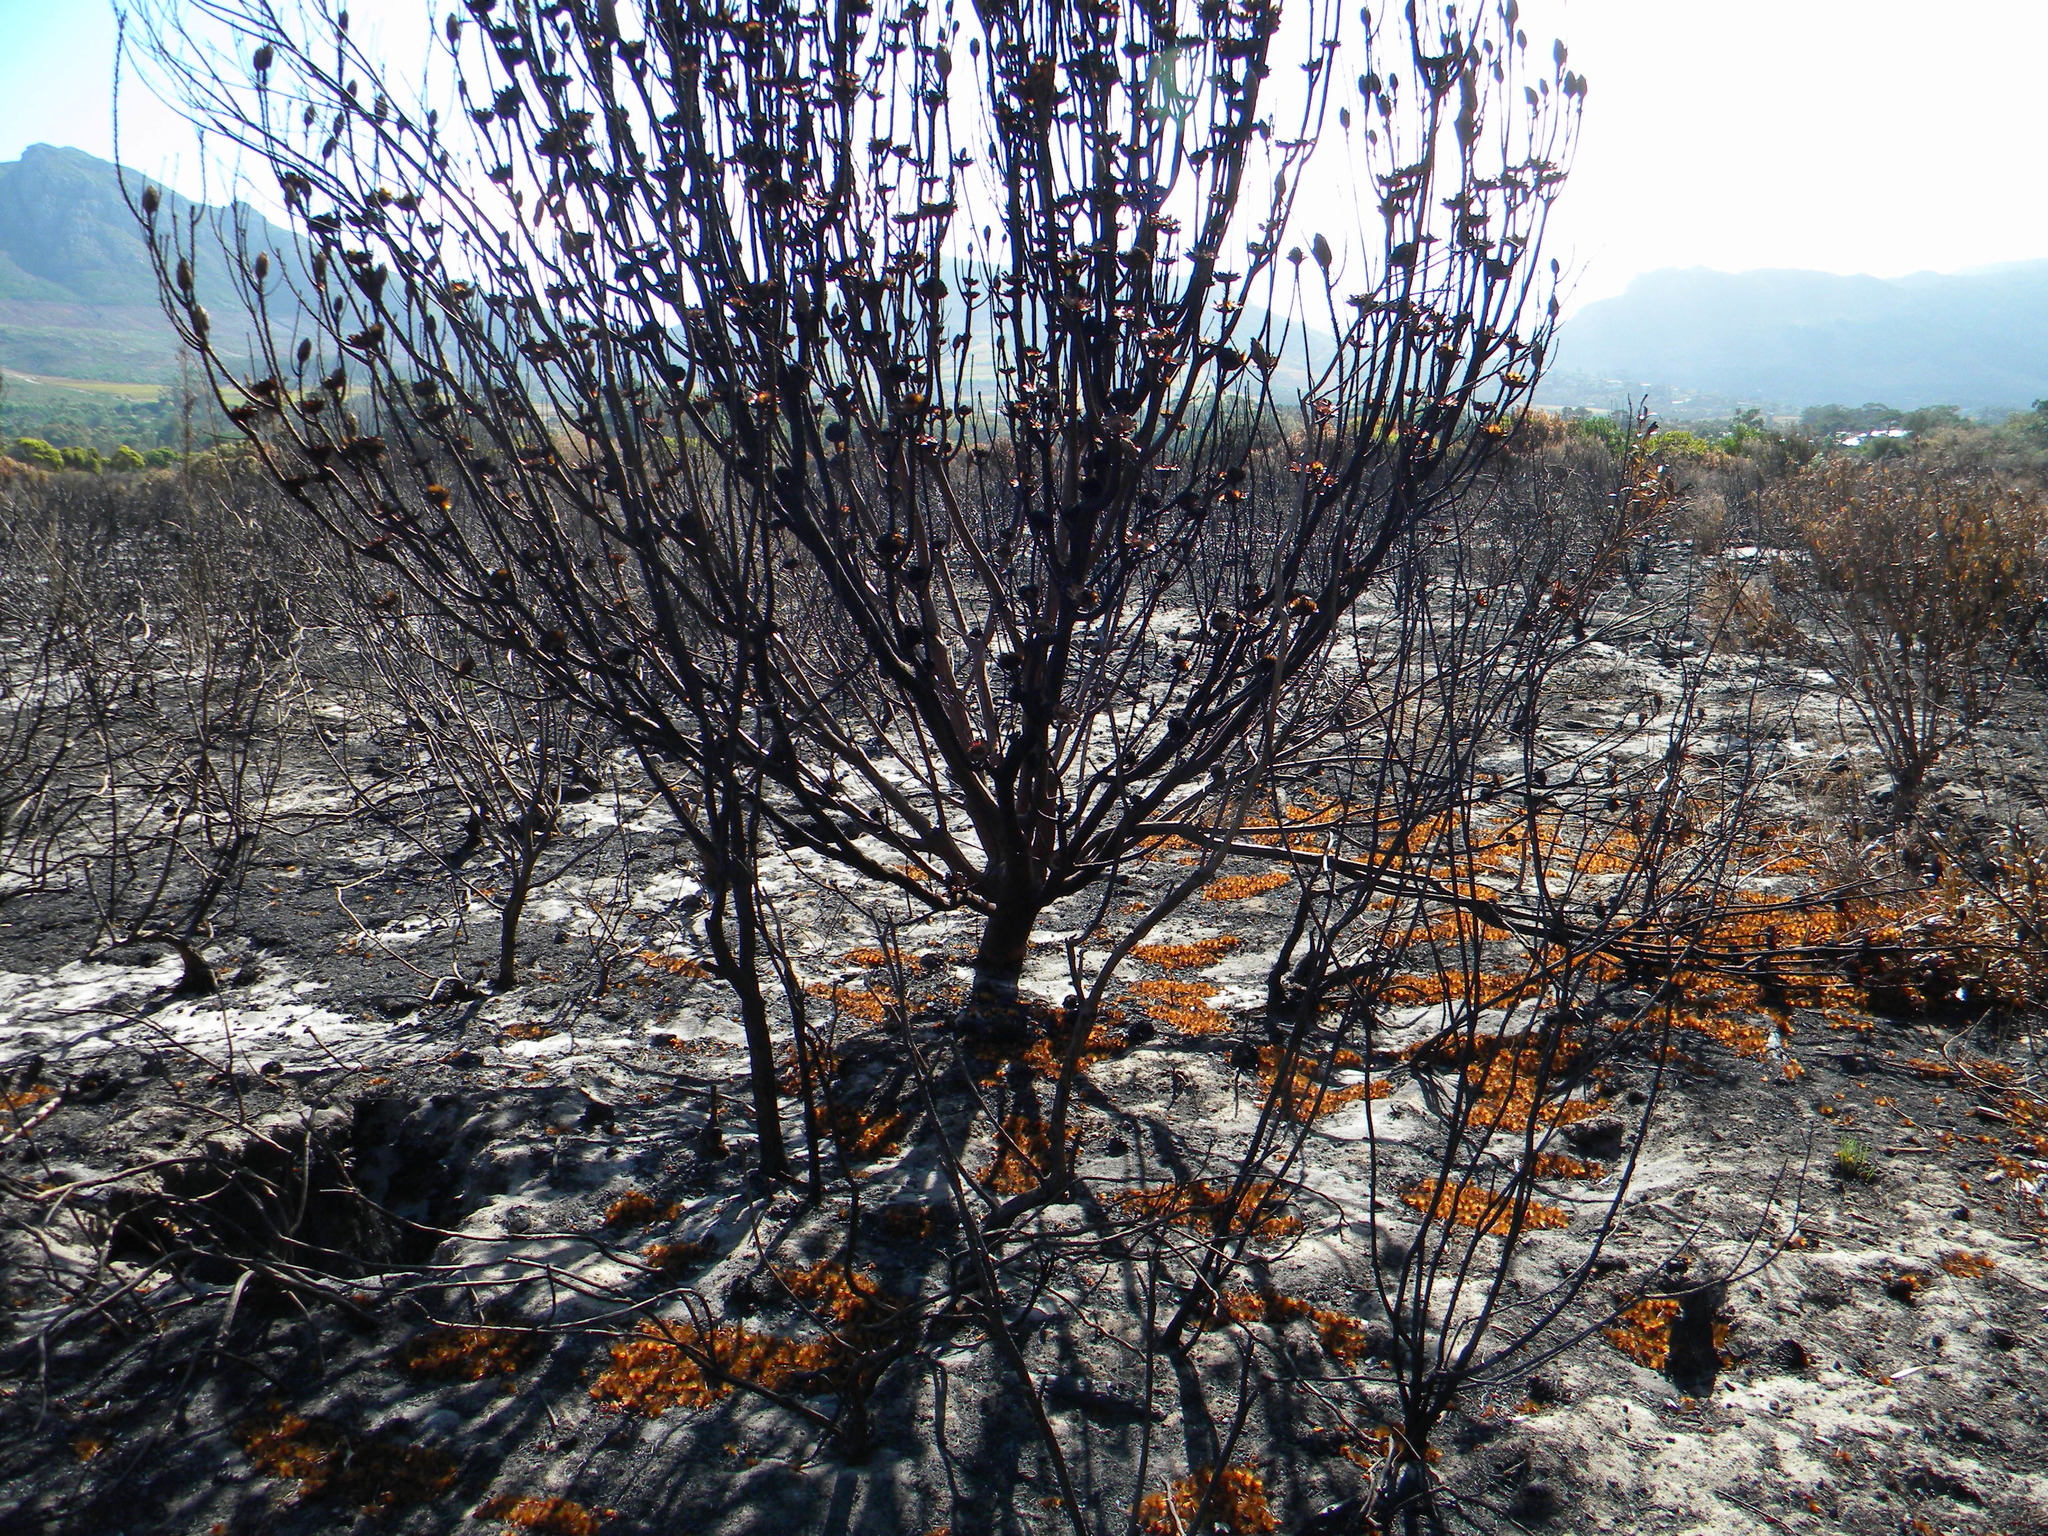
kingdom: Plantae
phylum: Tracheophyta
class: Magnoliopsida
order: Proteales
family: Proteaceae
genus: Protea
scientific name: Protea repens
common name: Sugarbush
